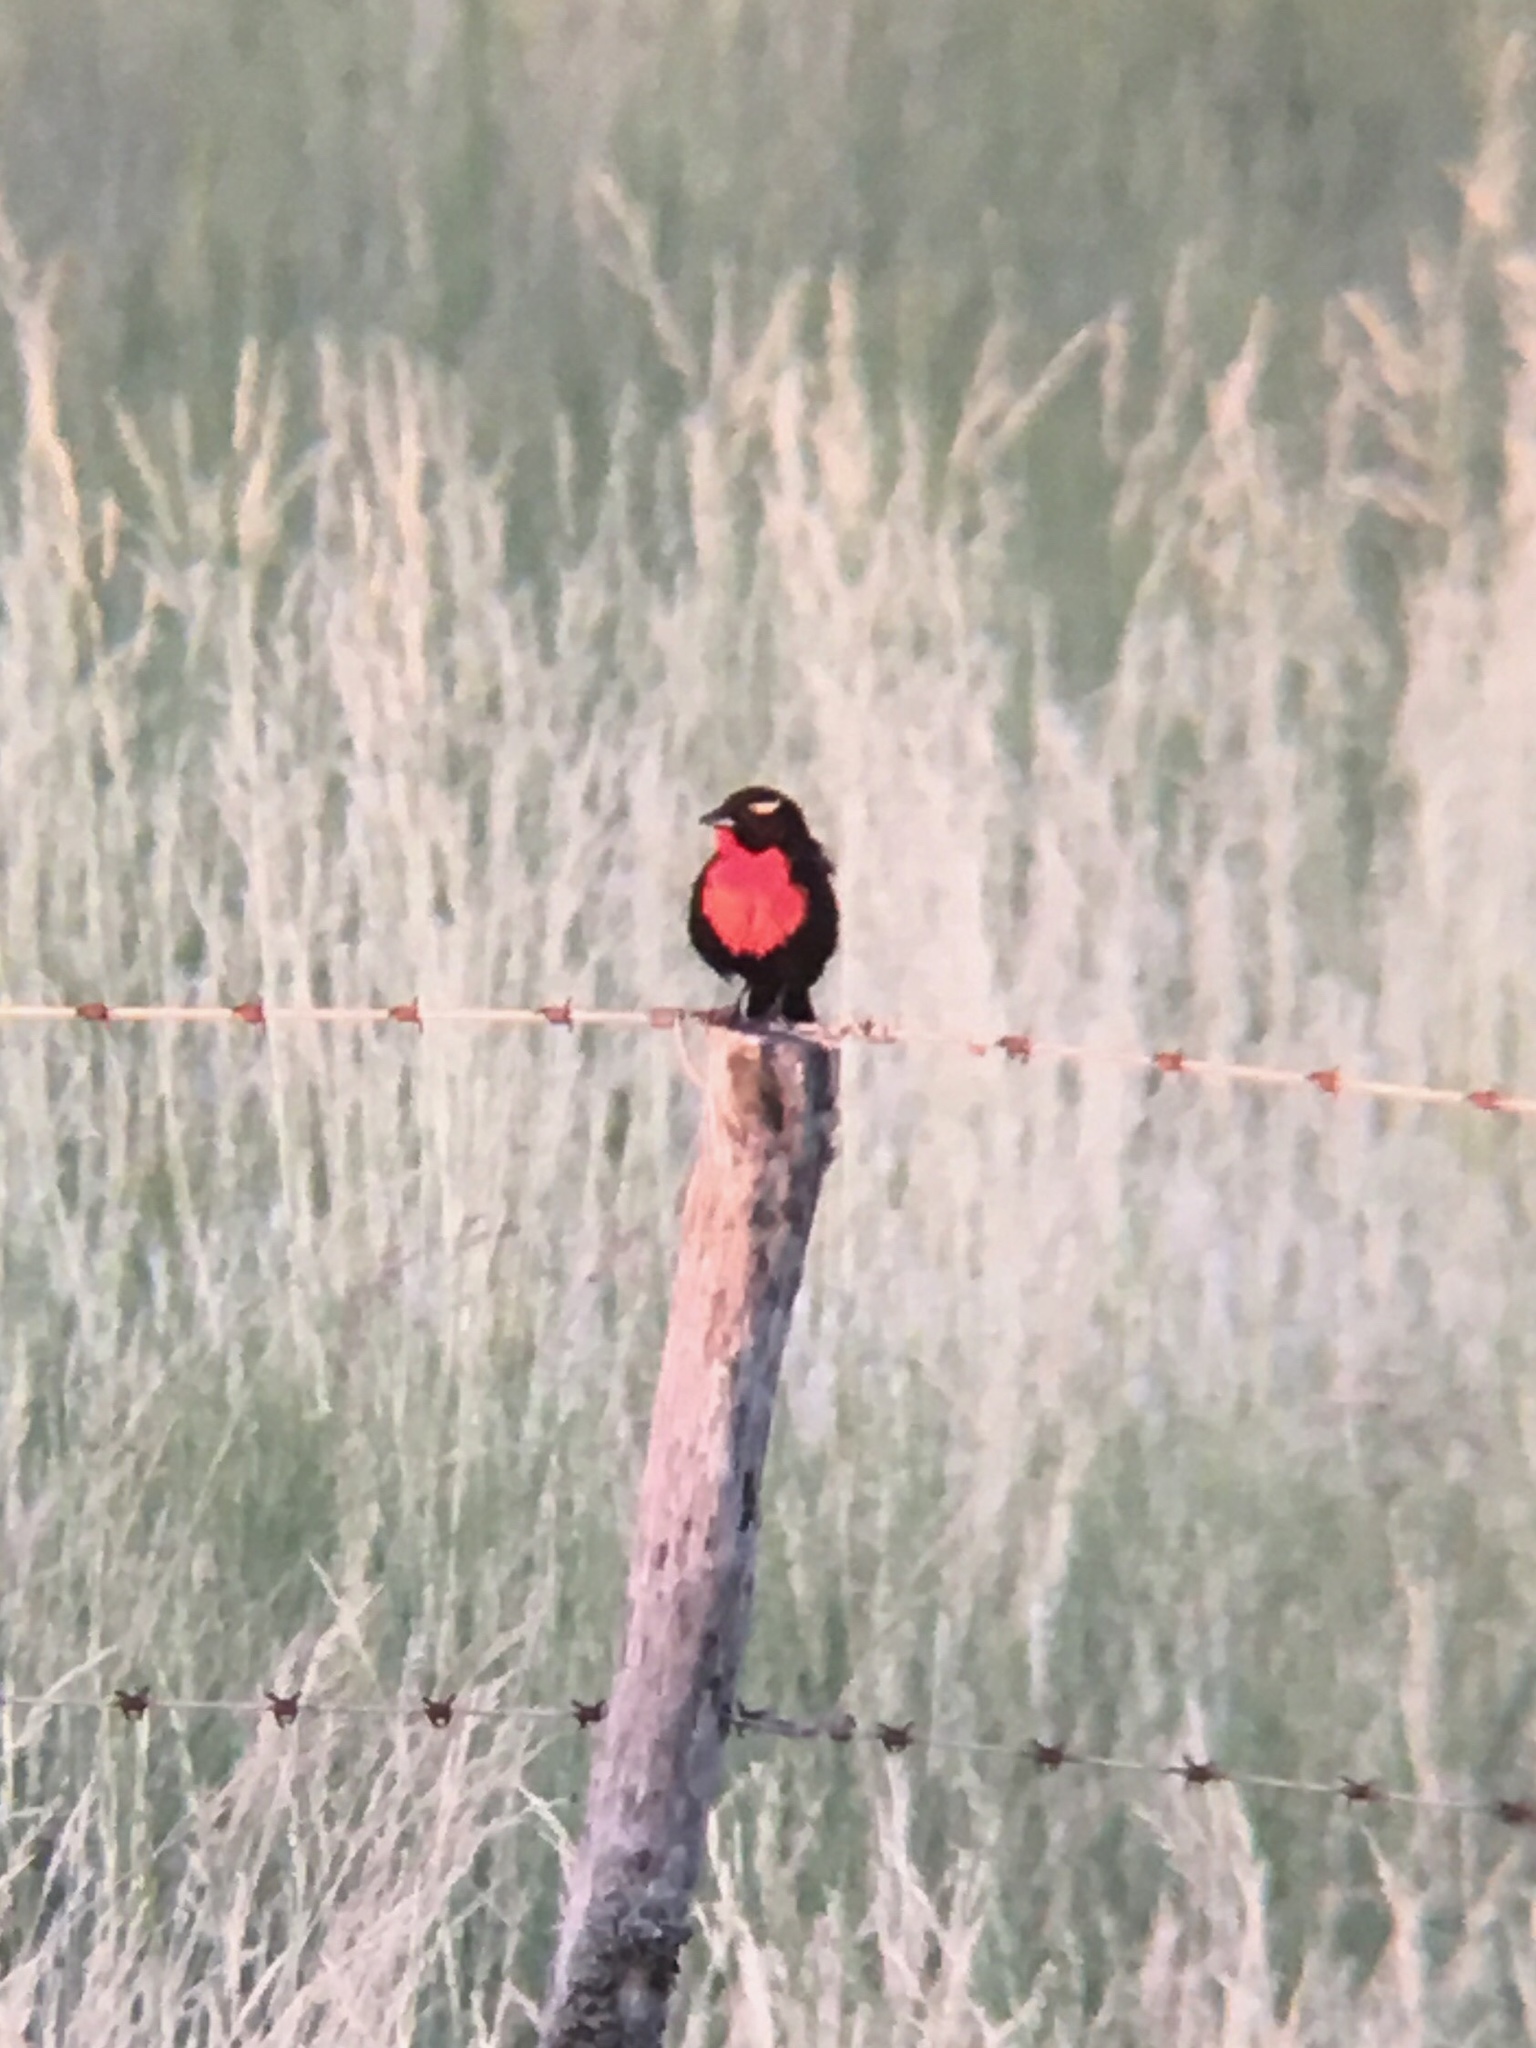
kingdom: Animalia
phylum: Chordata
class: Aves
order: Passeriformes
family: Icteridae
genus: Sturnella
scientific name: Sturnella superciliaris
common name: White-browed blackbird
